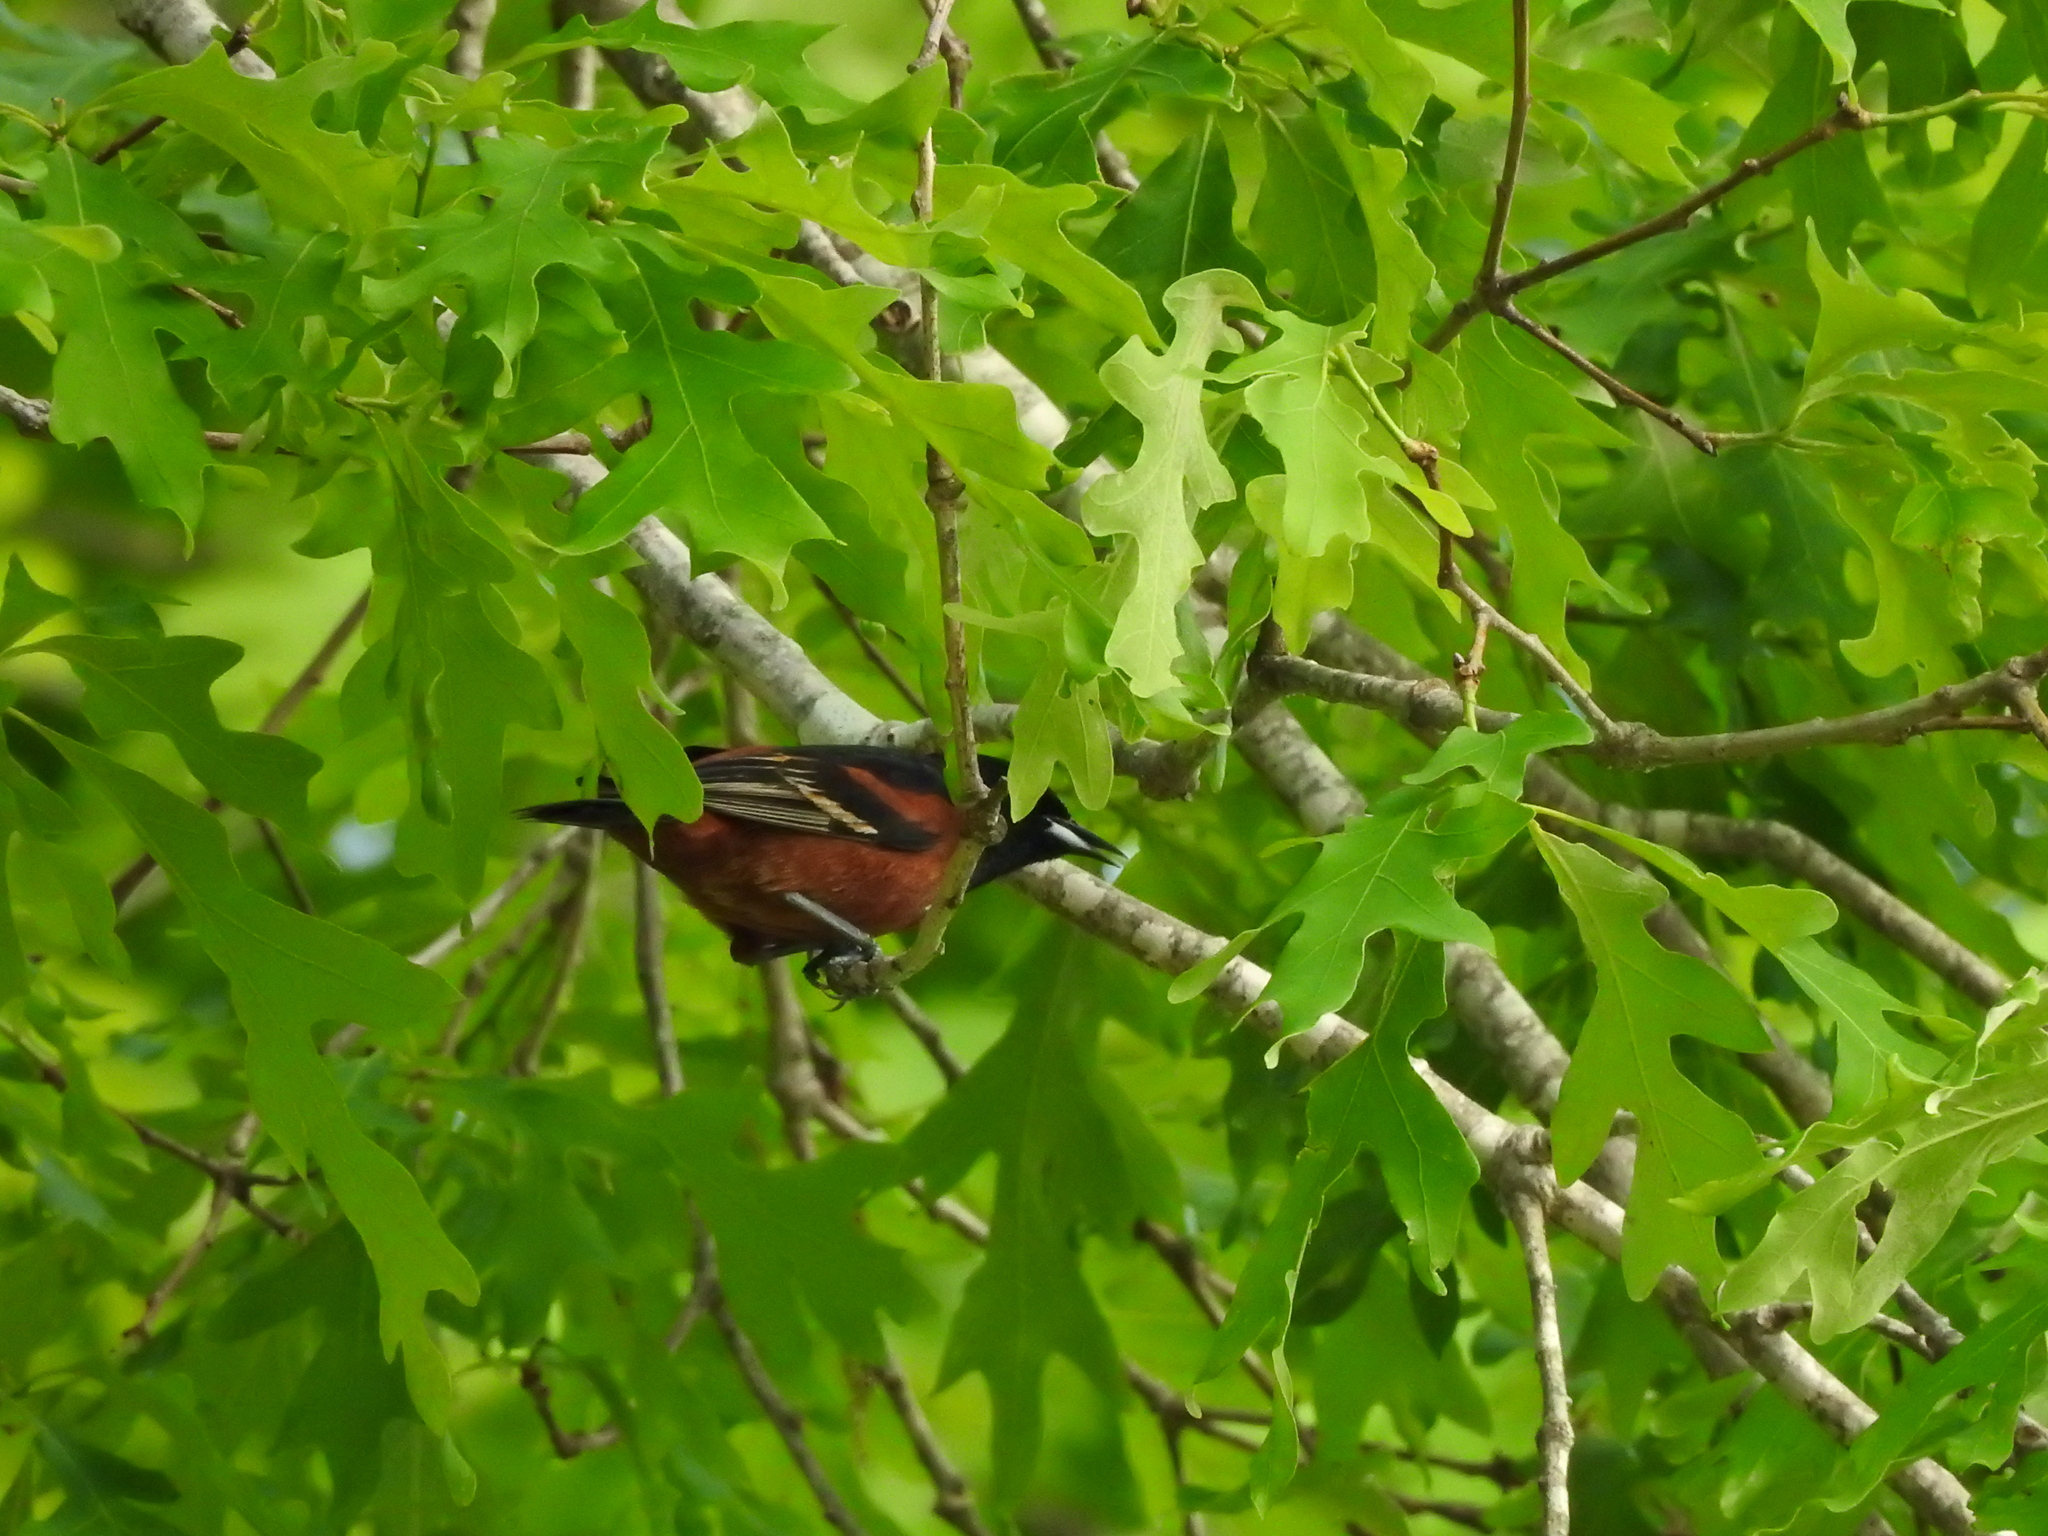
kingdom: Animalia
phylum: Chordata
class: Aves
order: Passeriformes
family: Icteridae
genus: Icterus
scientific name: Icterus spurius
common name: Orchard oriole
